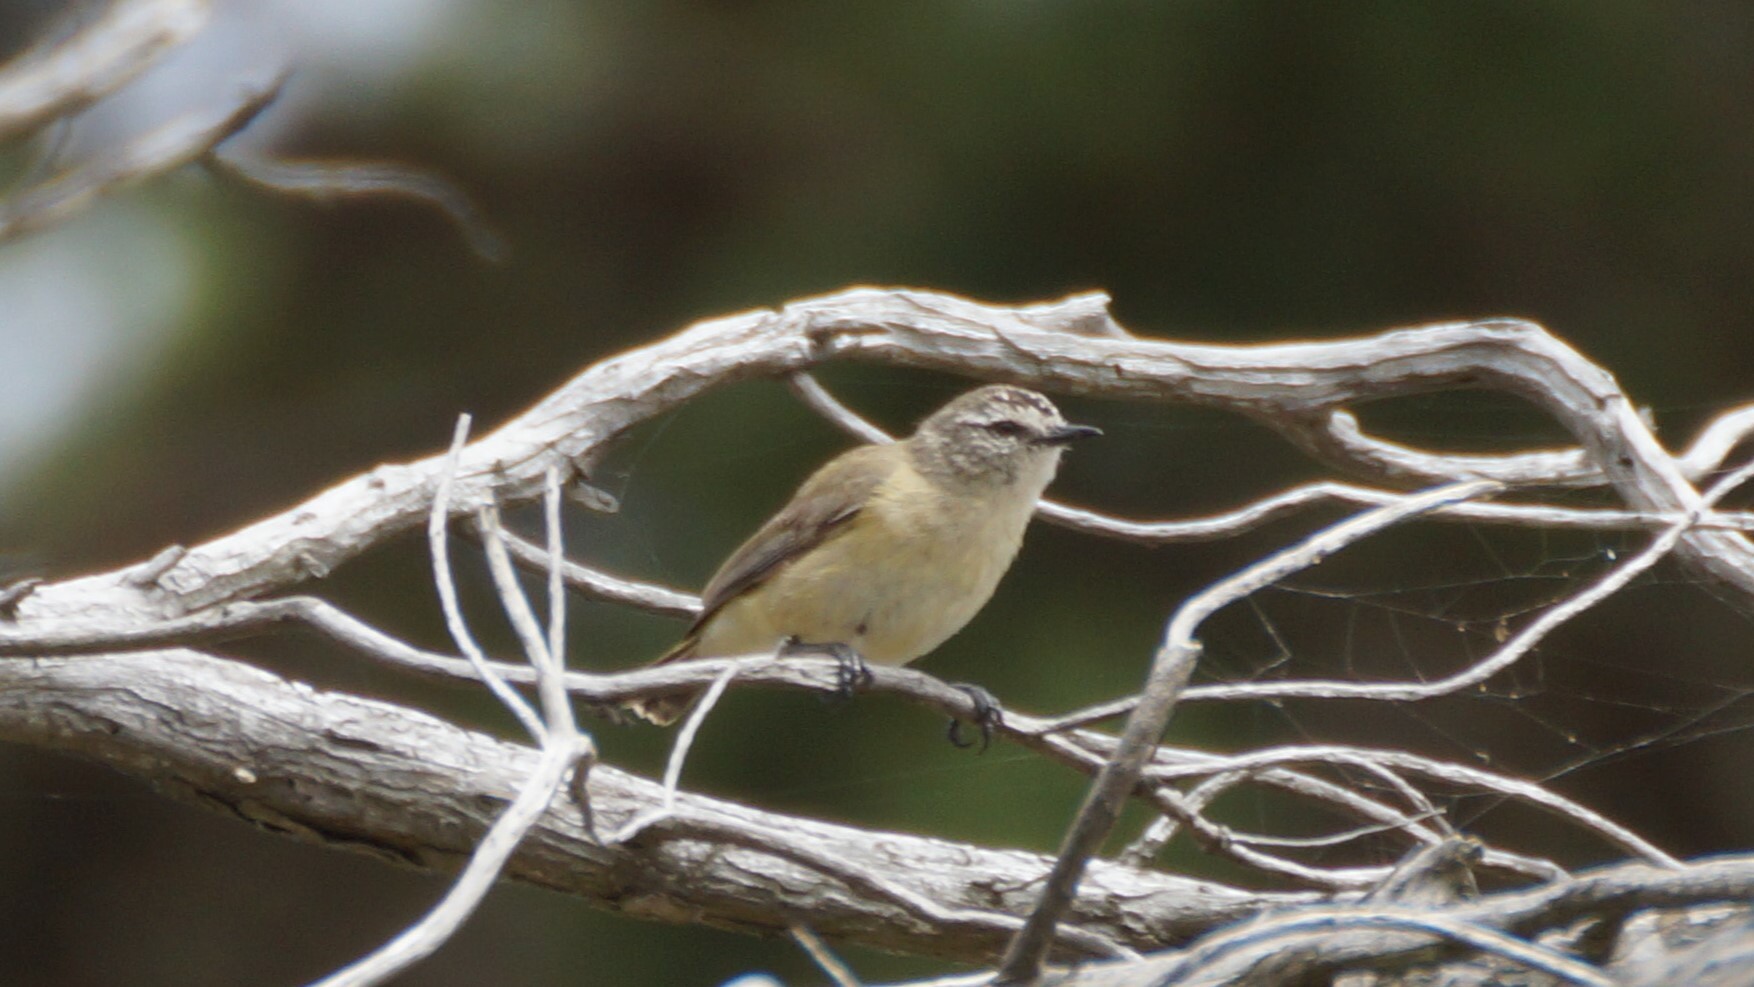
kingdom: Animalia
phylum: Chordata
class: Aves
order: Passeriformes
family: Acanthizidae
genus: Acanthiza
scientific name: Acanthiza chrysorrhoa
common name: Yellow-rumped thornbill
